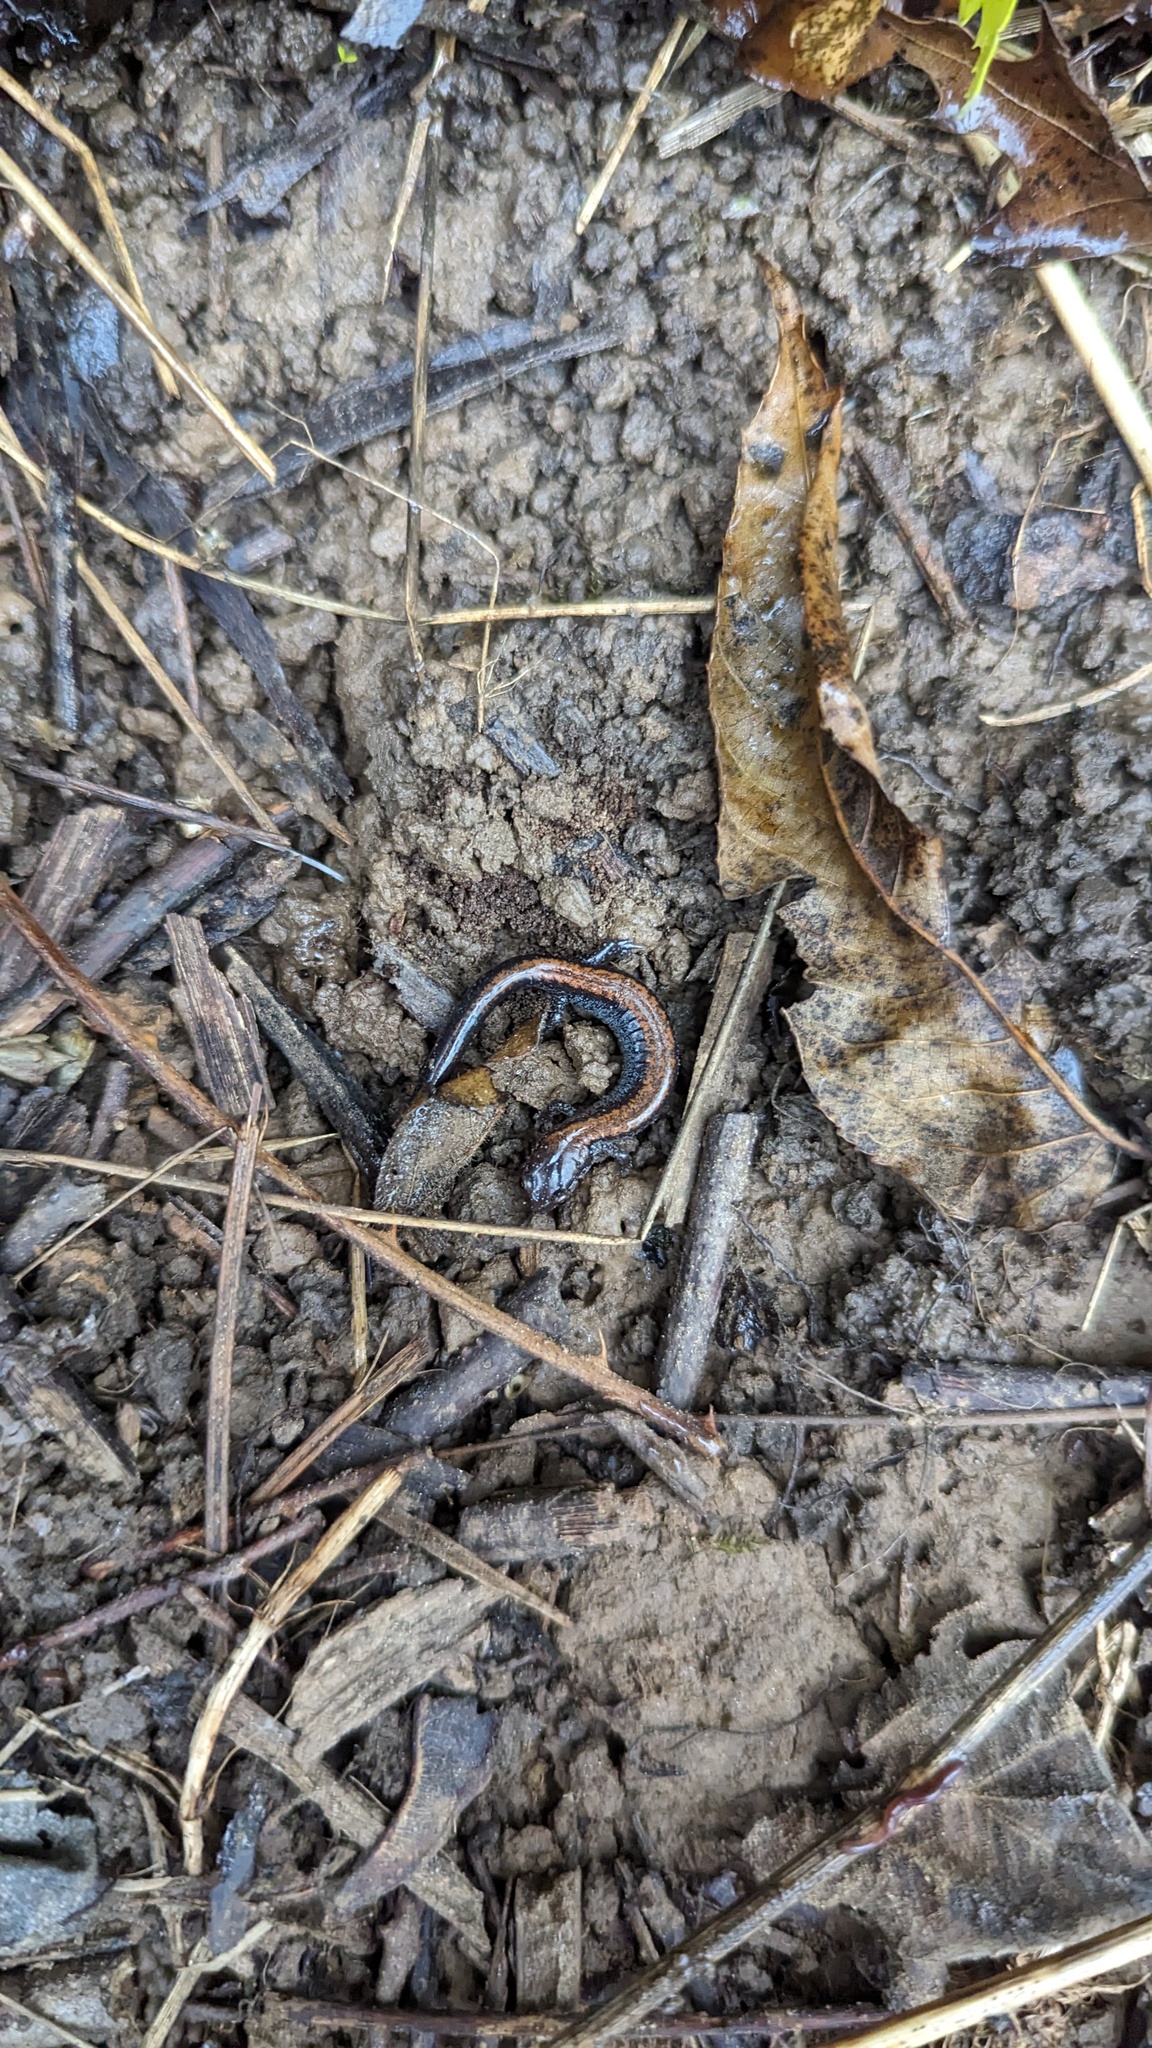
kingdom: Animalia
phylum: Chordata
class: Amphibia
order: Caudata
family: Plethodontidae
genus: Plethodon
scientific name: Plethodon cinereus
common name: Redback salamander
